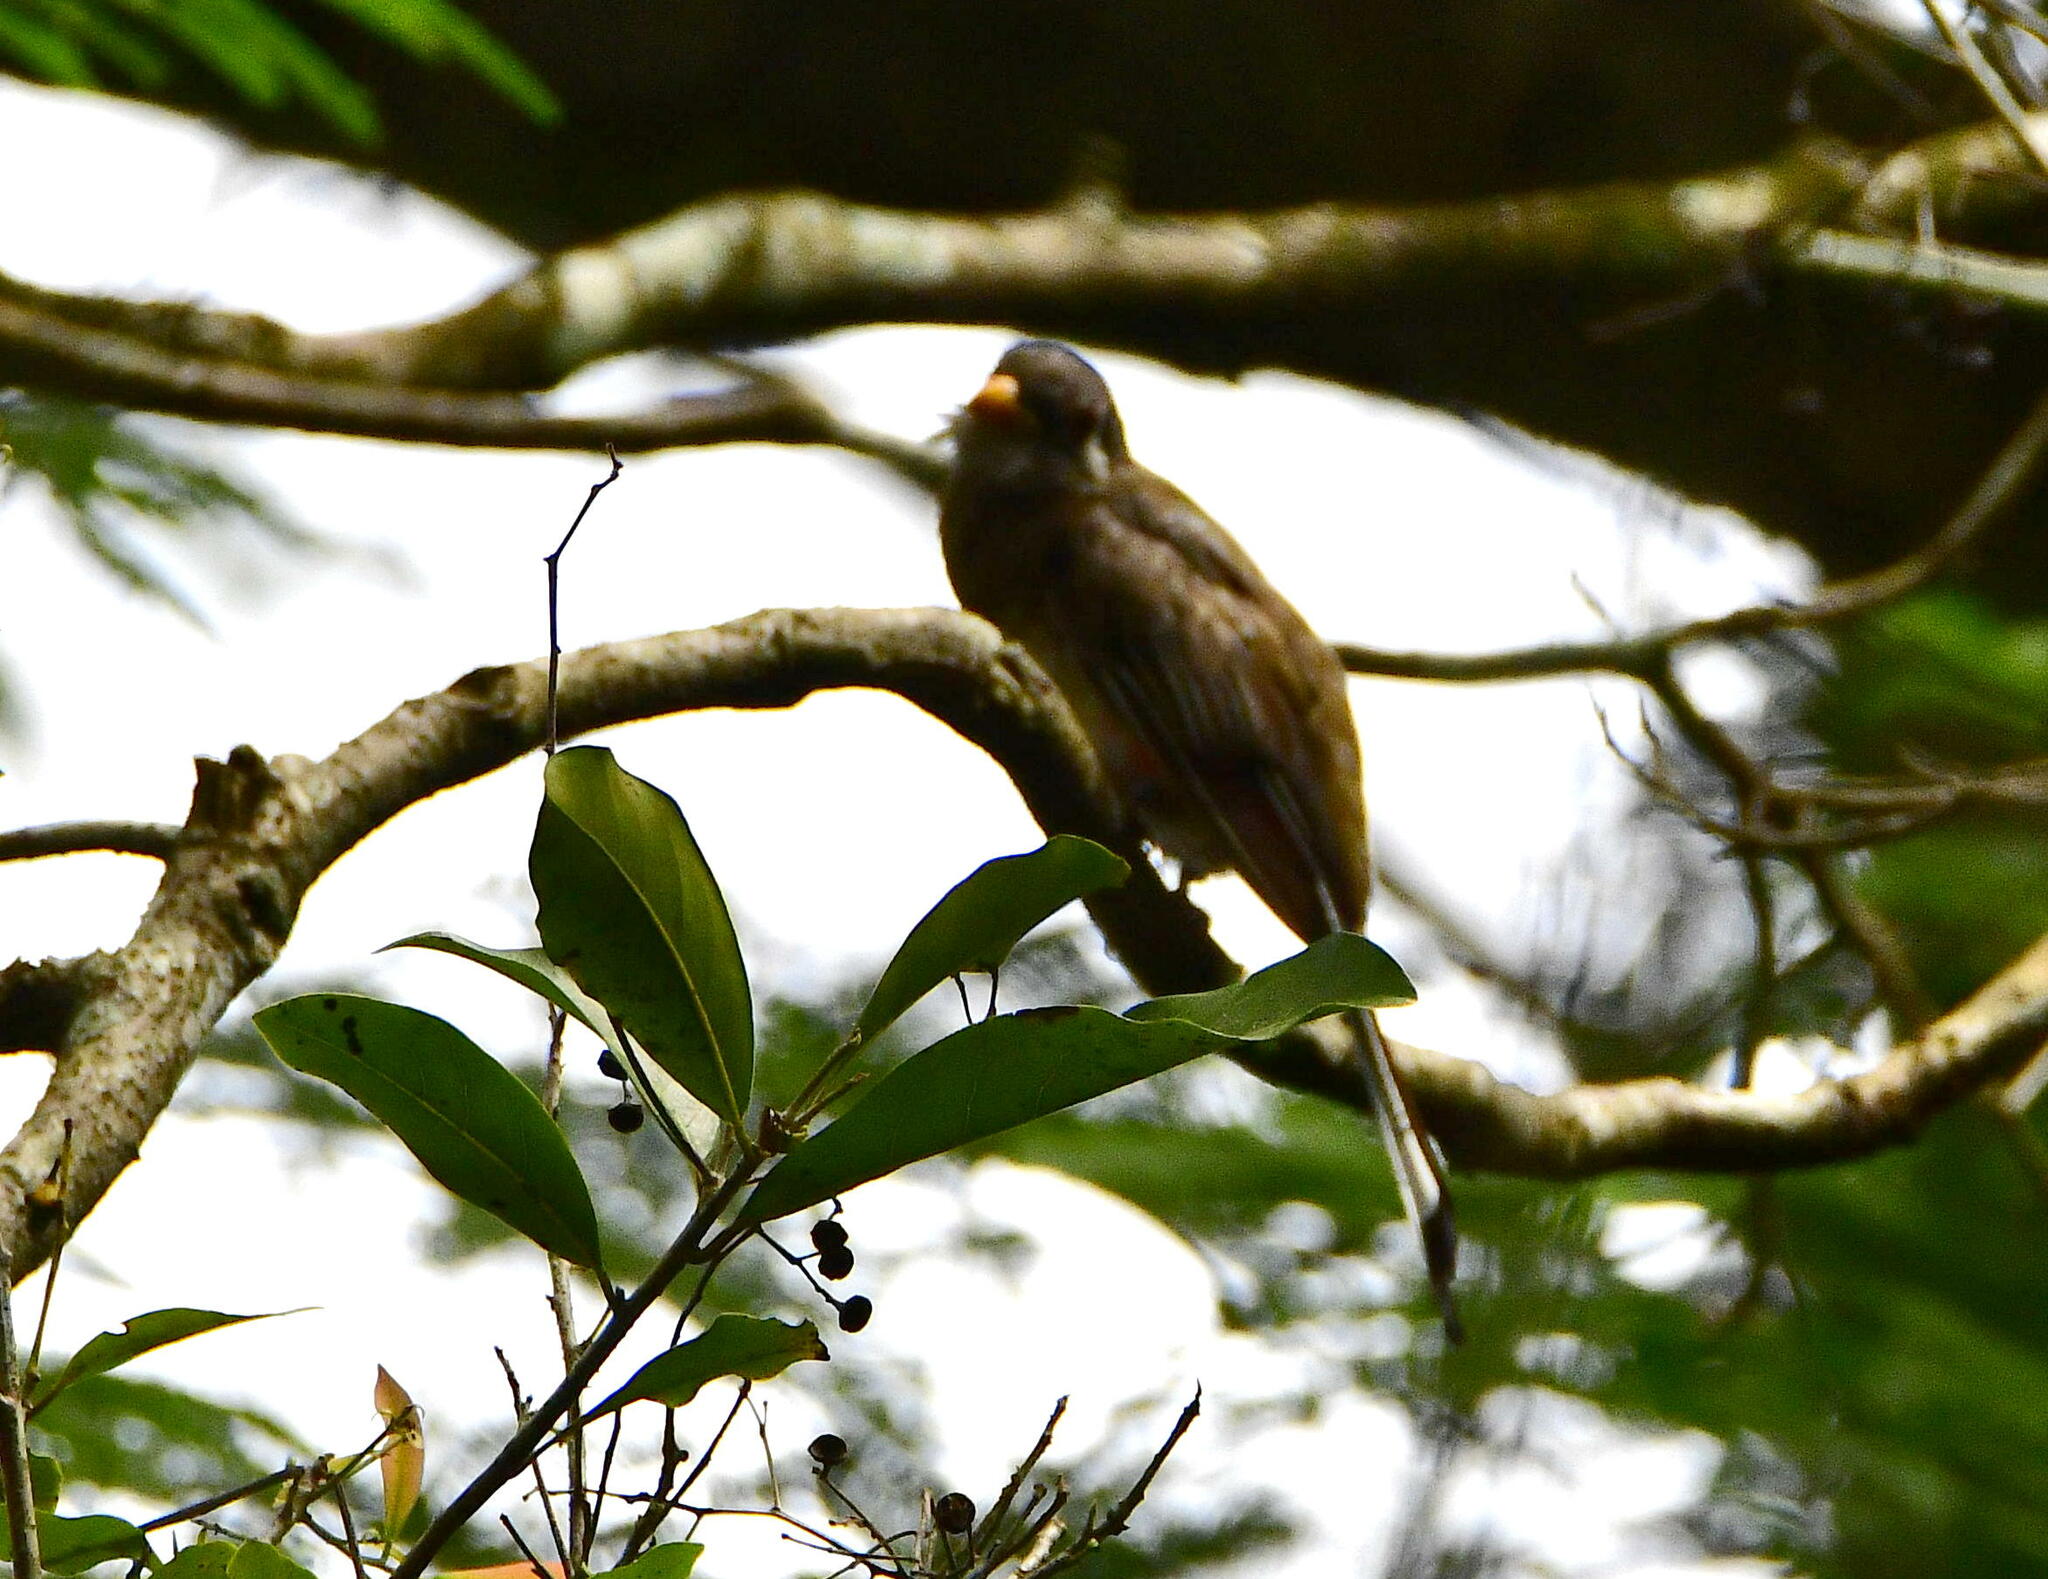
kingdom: Animalia
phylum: Chordata
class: Aves
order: Trogoniformes
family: Trogonidae
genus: Trogon
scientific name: Trogon elegans
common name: Elegant trogon
